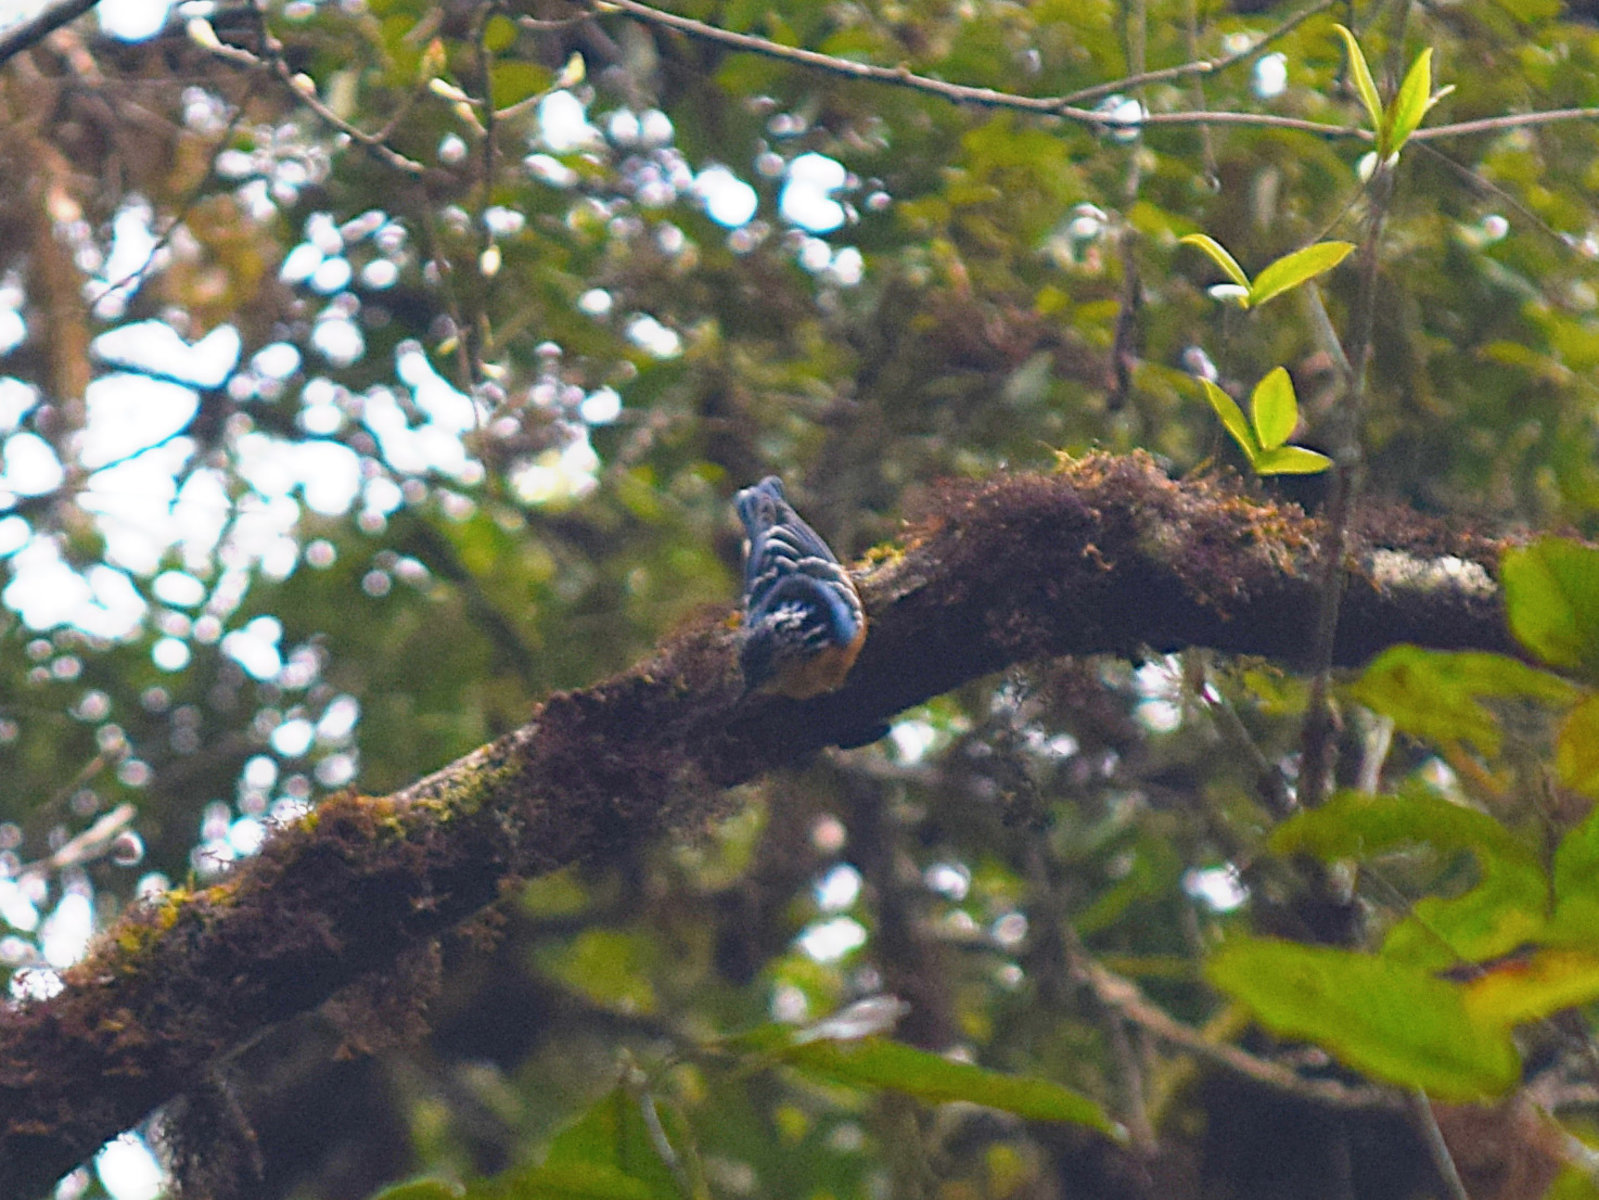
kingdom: Animalia
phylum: Chordata
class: Aves
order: Passeriformes
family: Sittidae
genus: Sitta
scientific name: Sitta formosa
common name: Beautiful nuthatch
